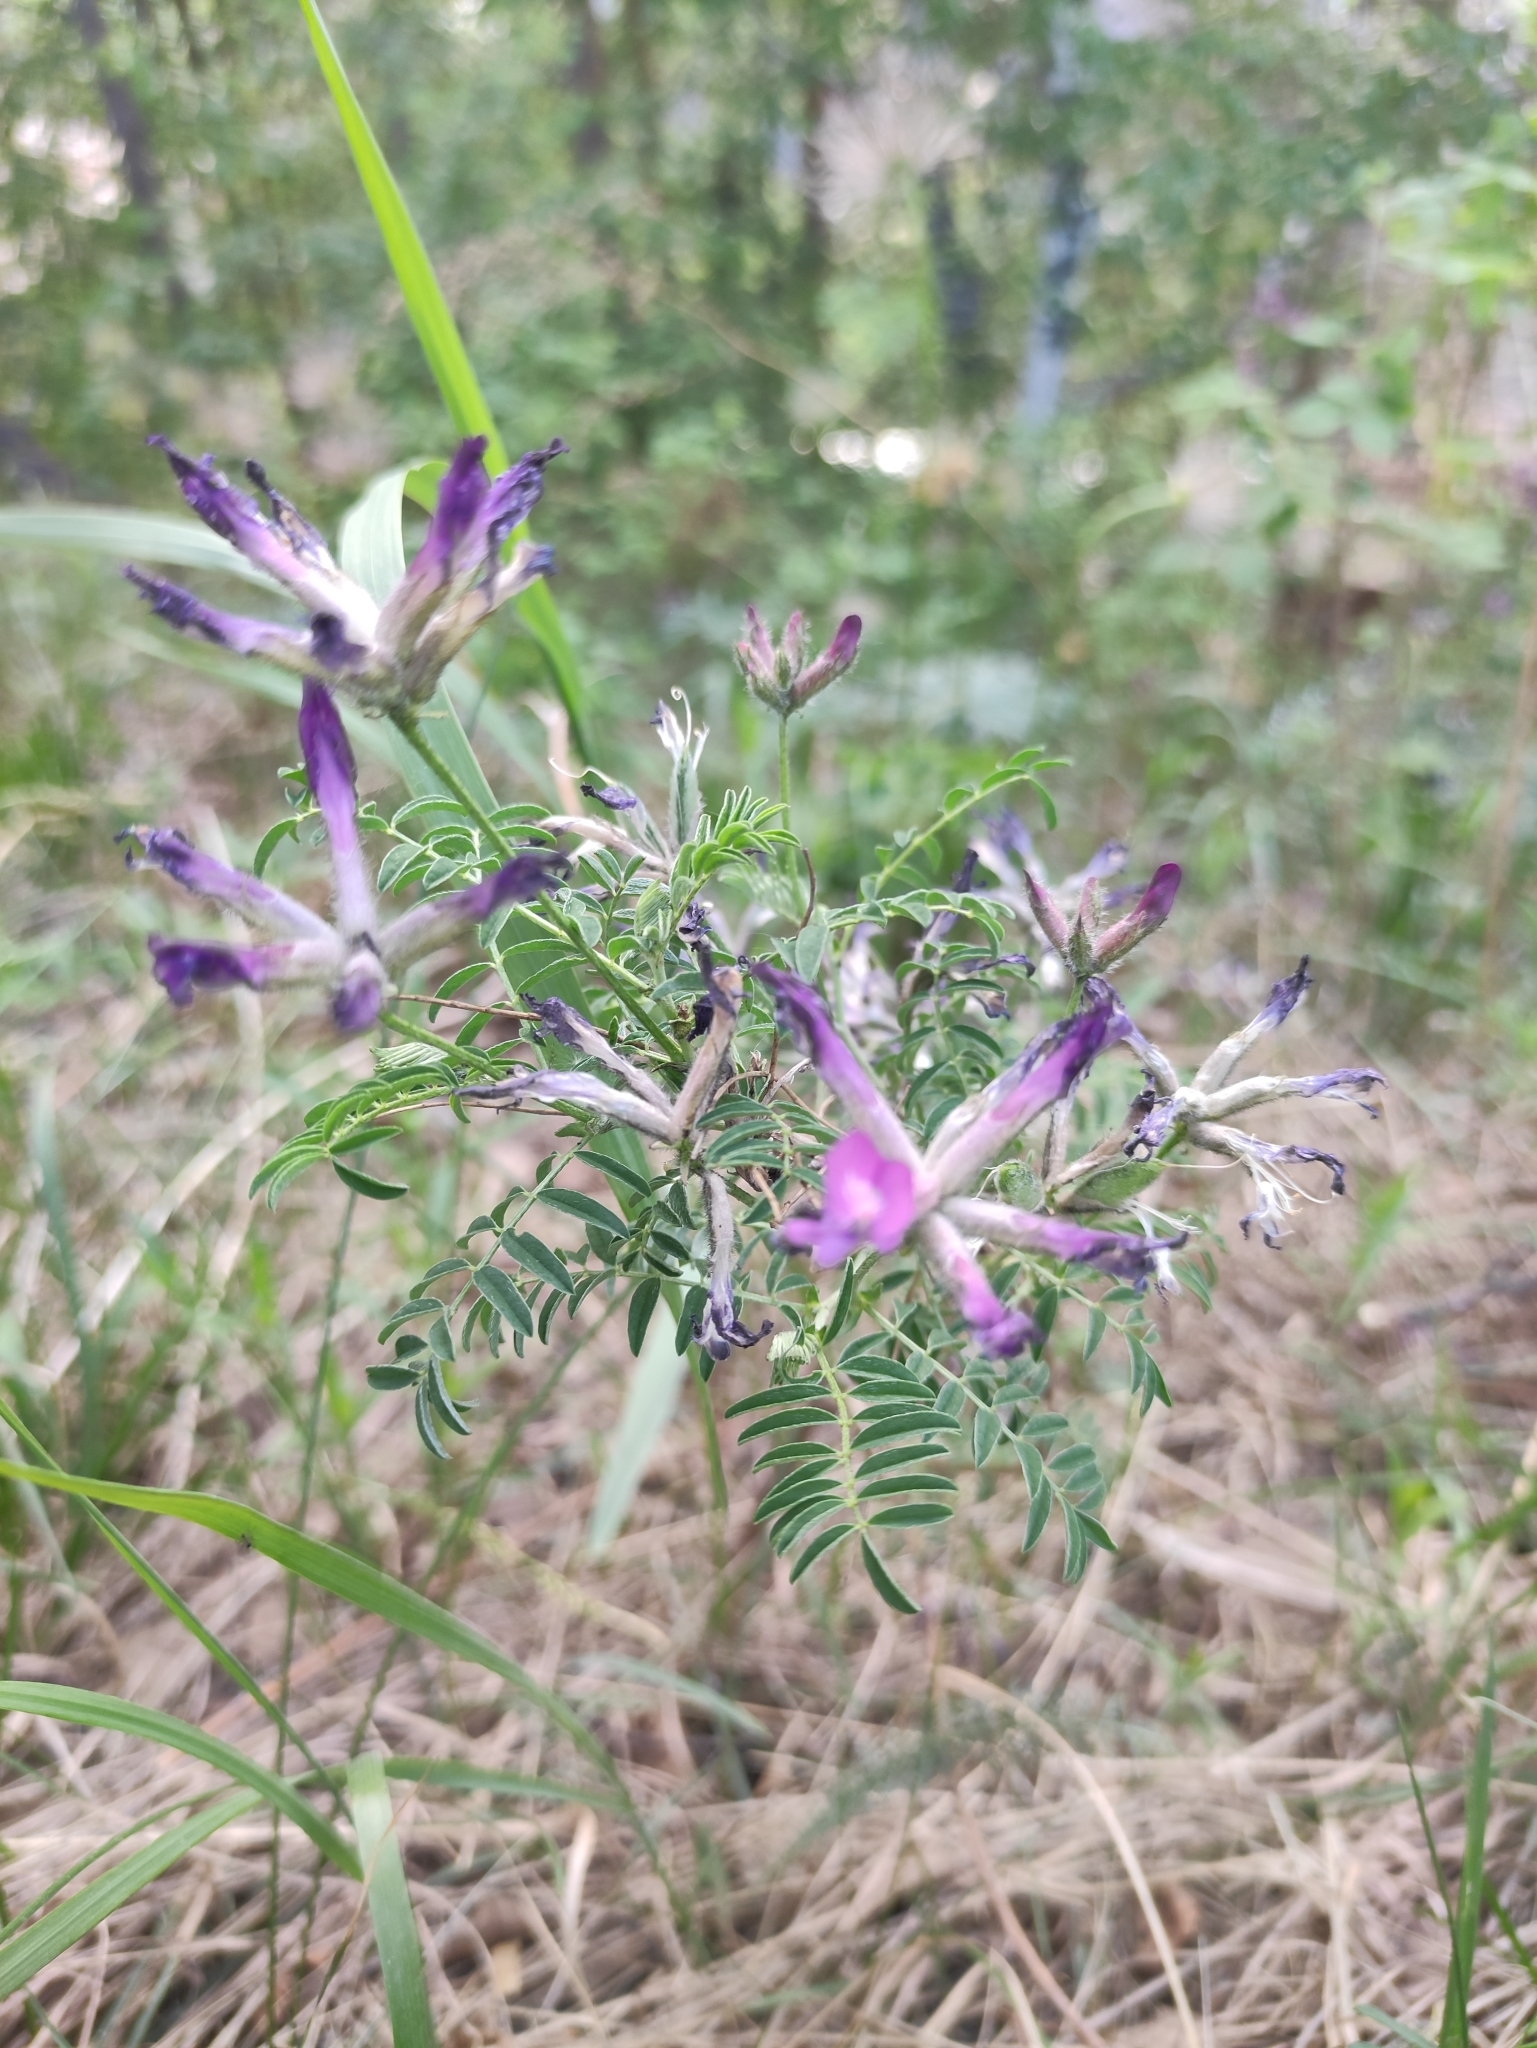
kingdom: Plantae
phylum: Tracheophyta
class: Magnoliopsida
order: Fabales
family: Fabaceae
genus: Astragalus
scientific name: Astragalus syriacus
